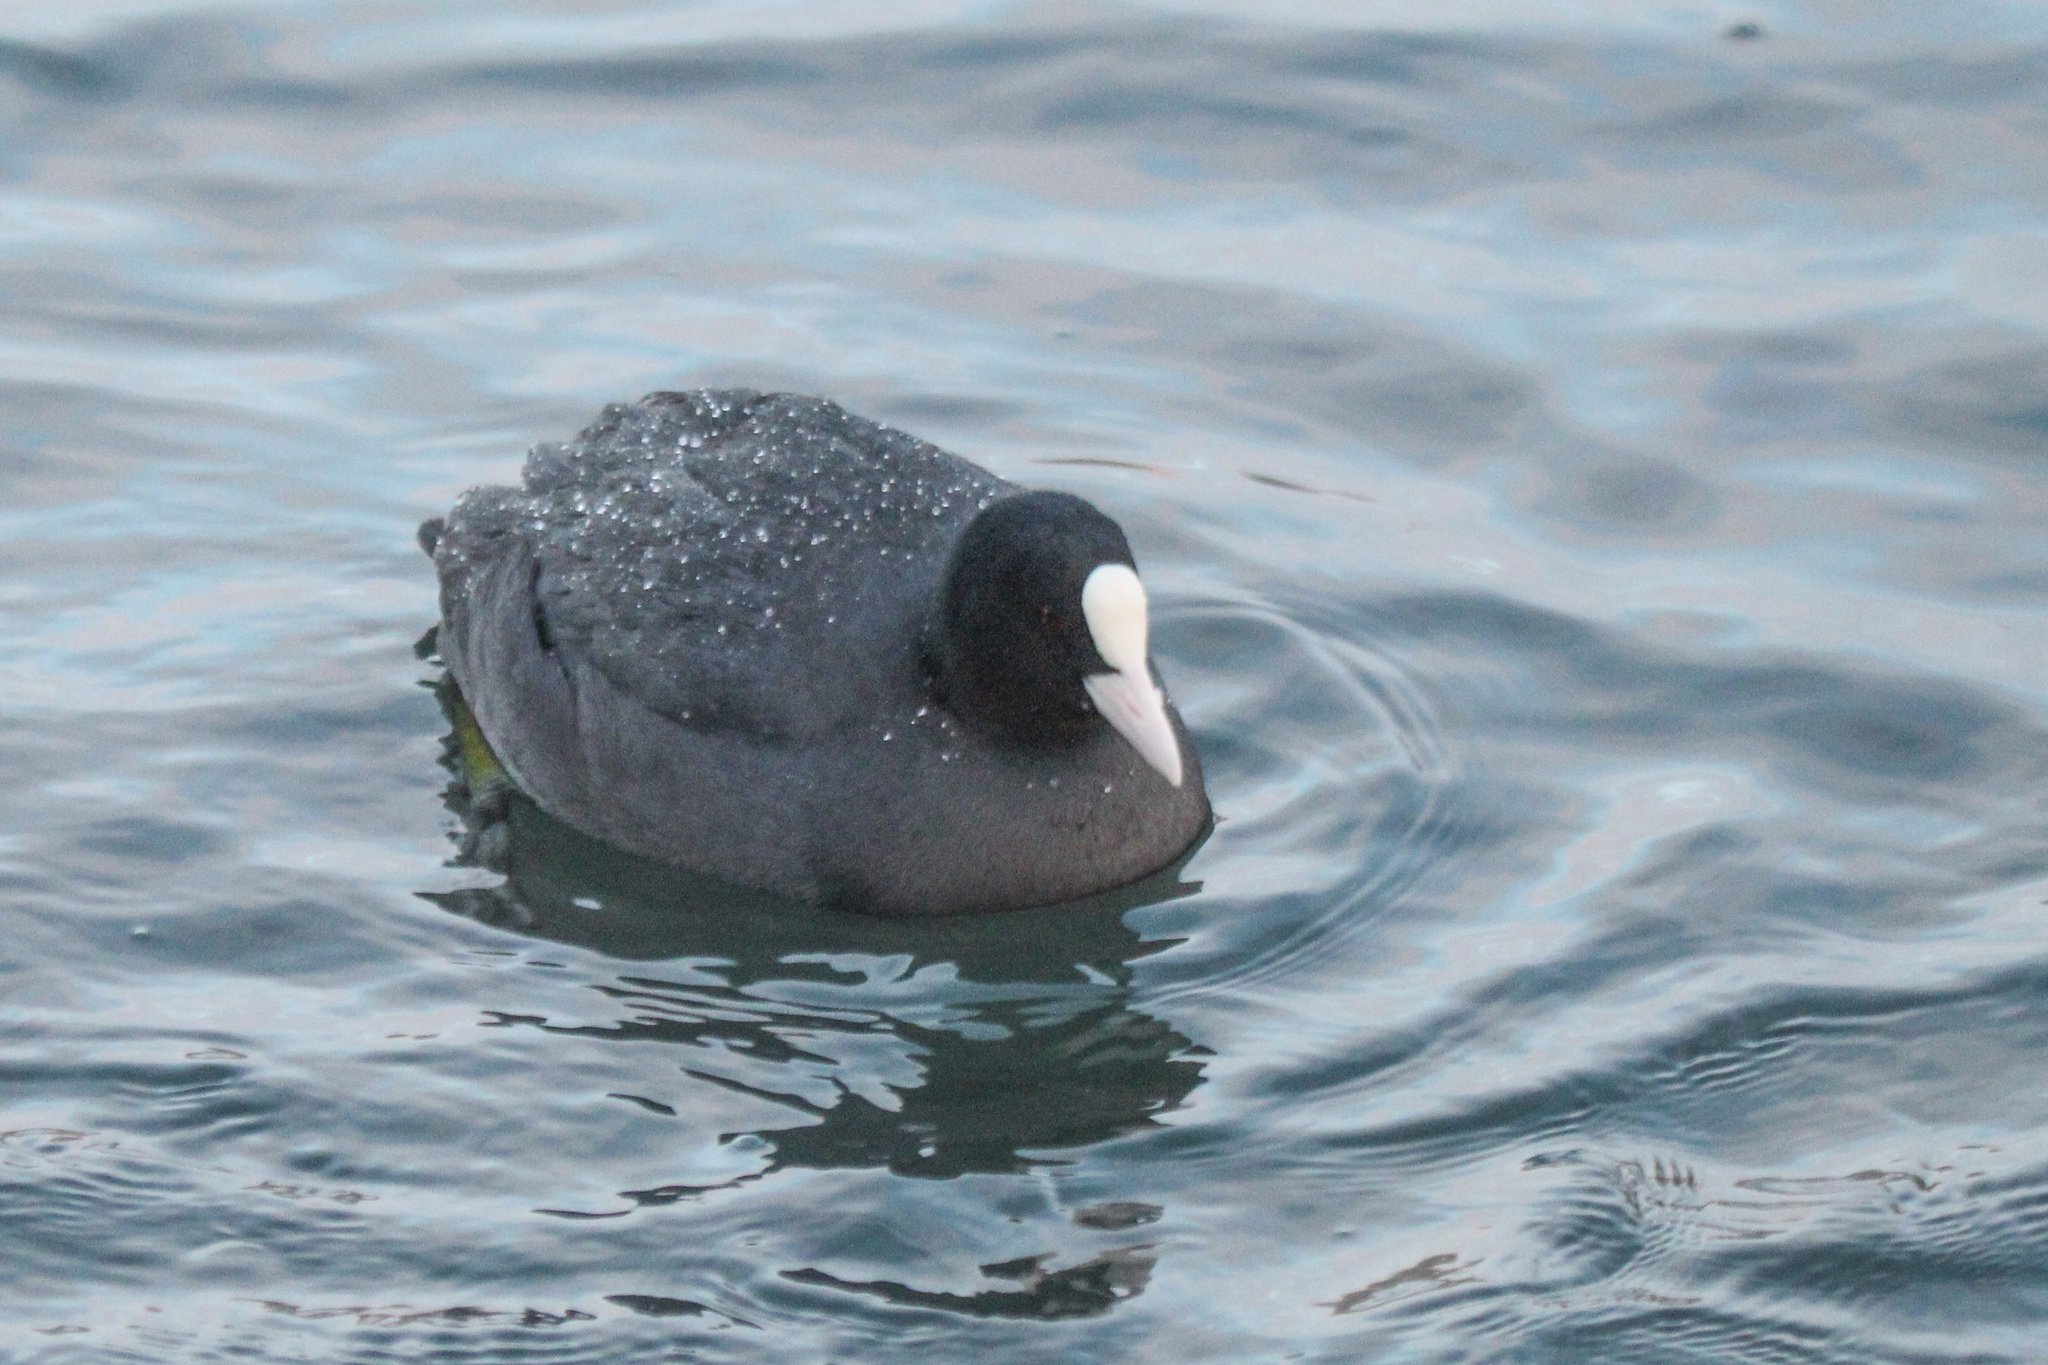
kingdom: Animalia
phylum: Chordata
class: Aves
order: Gruiformes
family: Rallidae
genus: Fulica
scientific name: Fulica atra
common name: Eurasian coot
